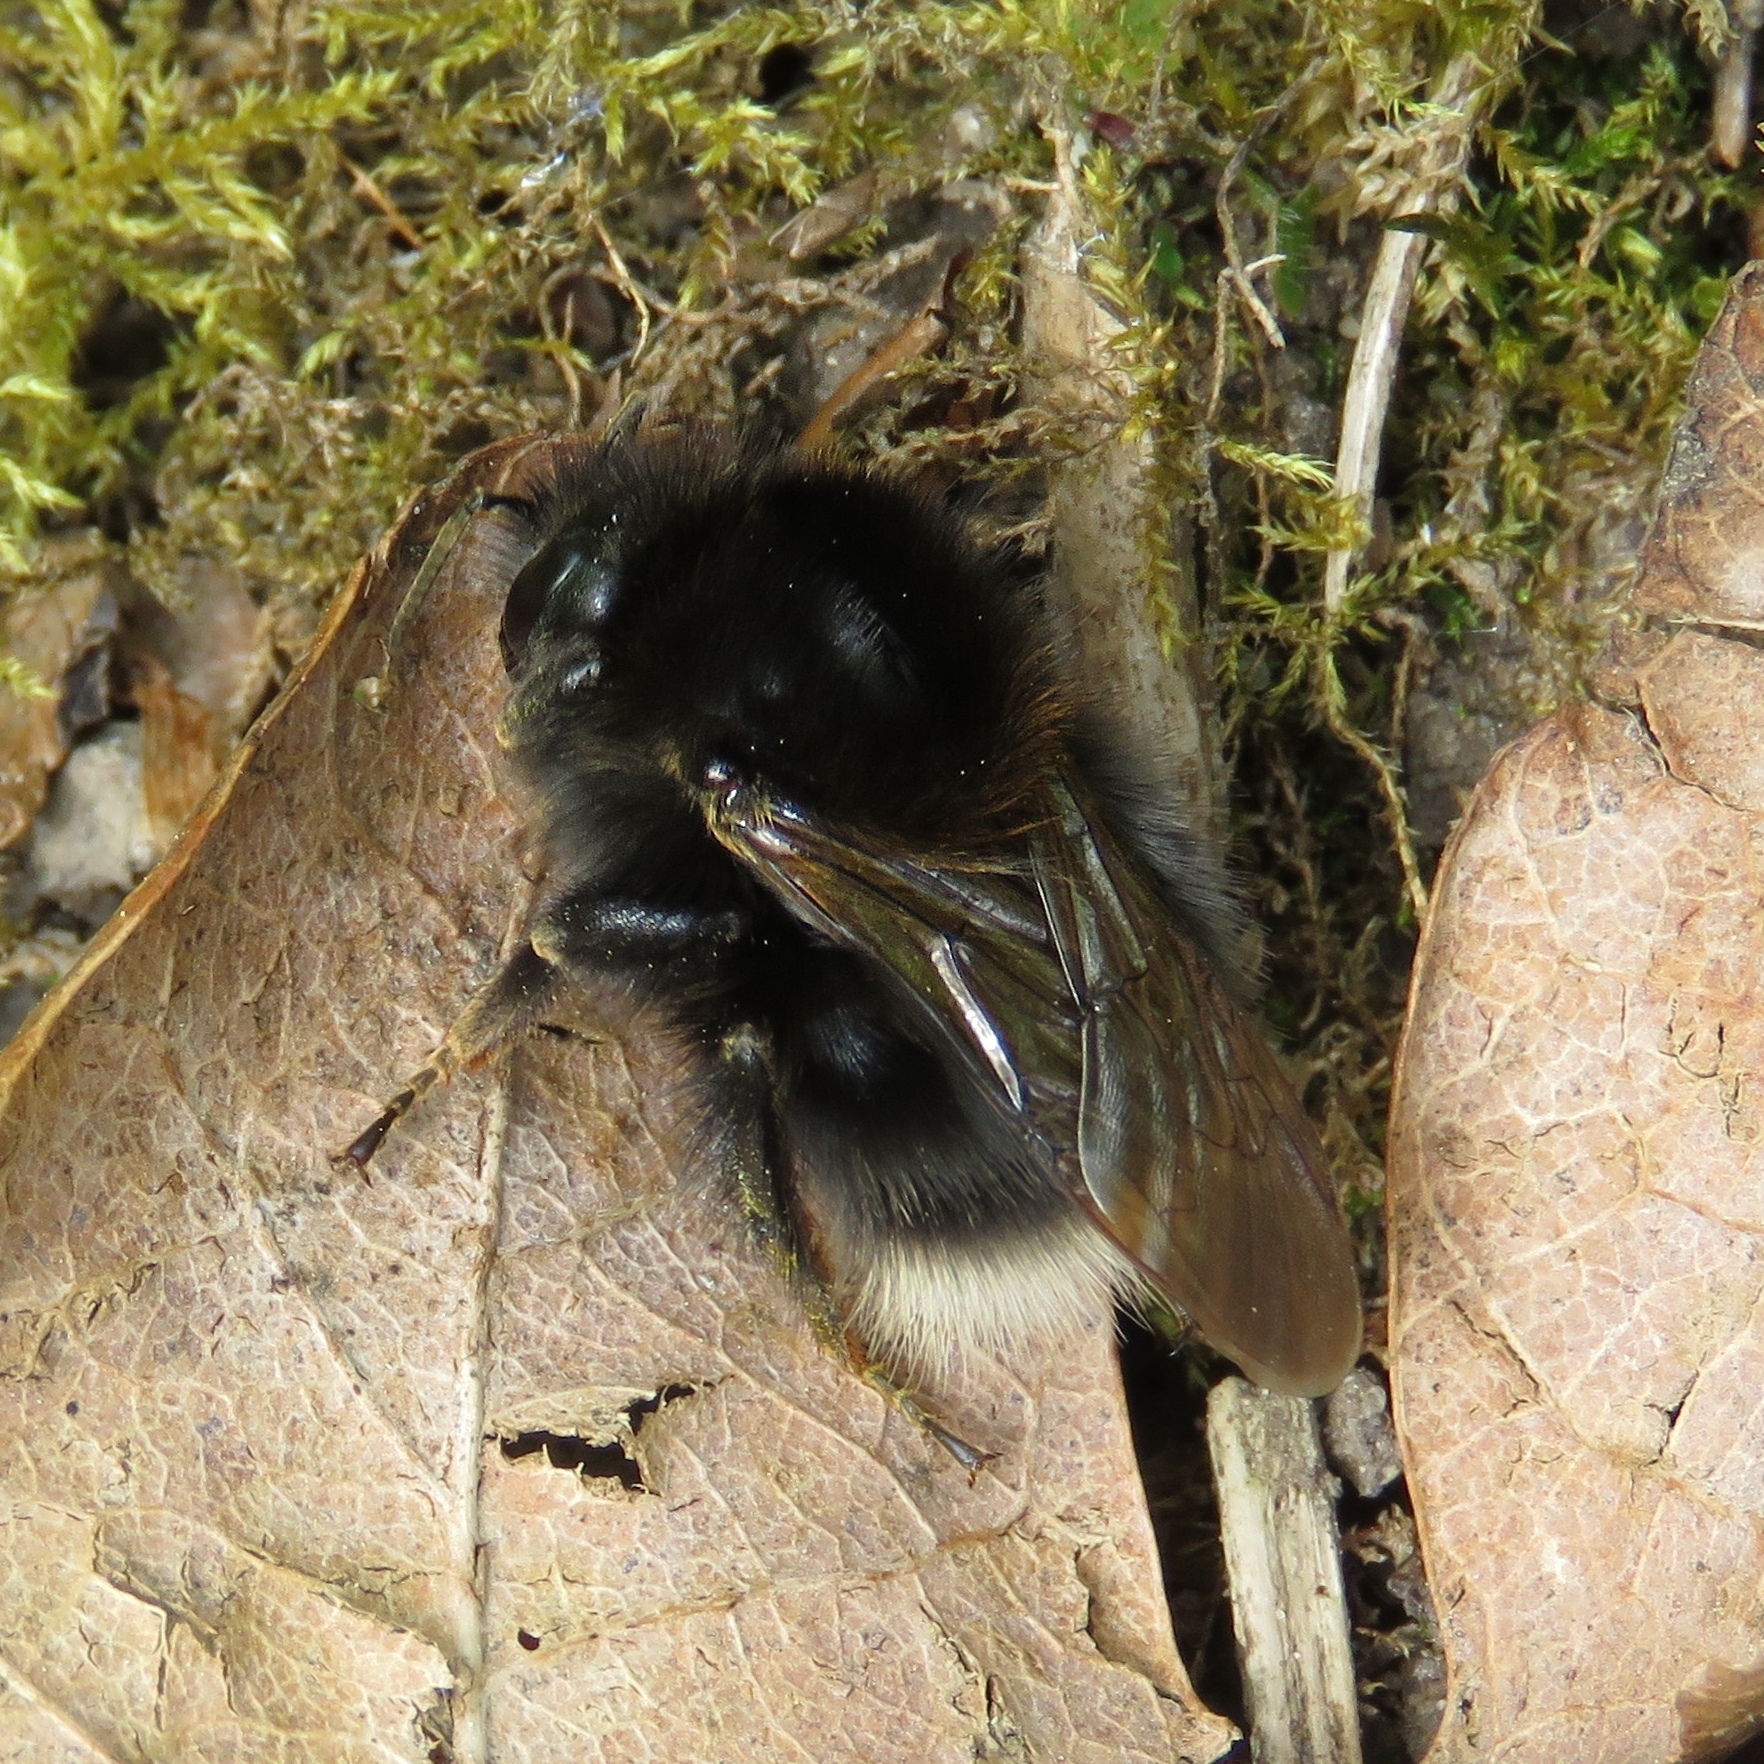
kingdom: Animalia
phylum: Arthropoda
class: Insecta
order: Hymenoptera
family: Apidae
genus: Bombus
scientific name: Bombus hypnorum
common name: New garden bumblebee
